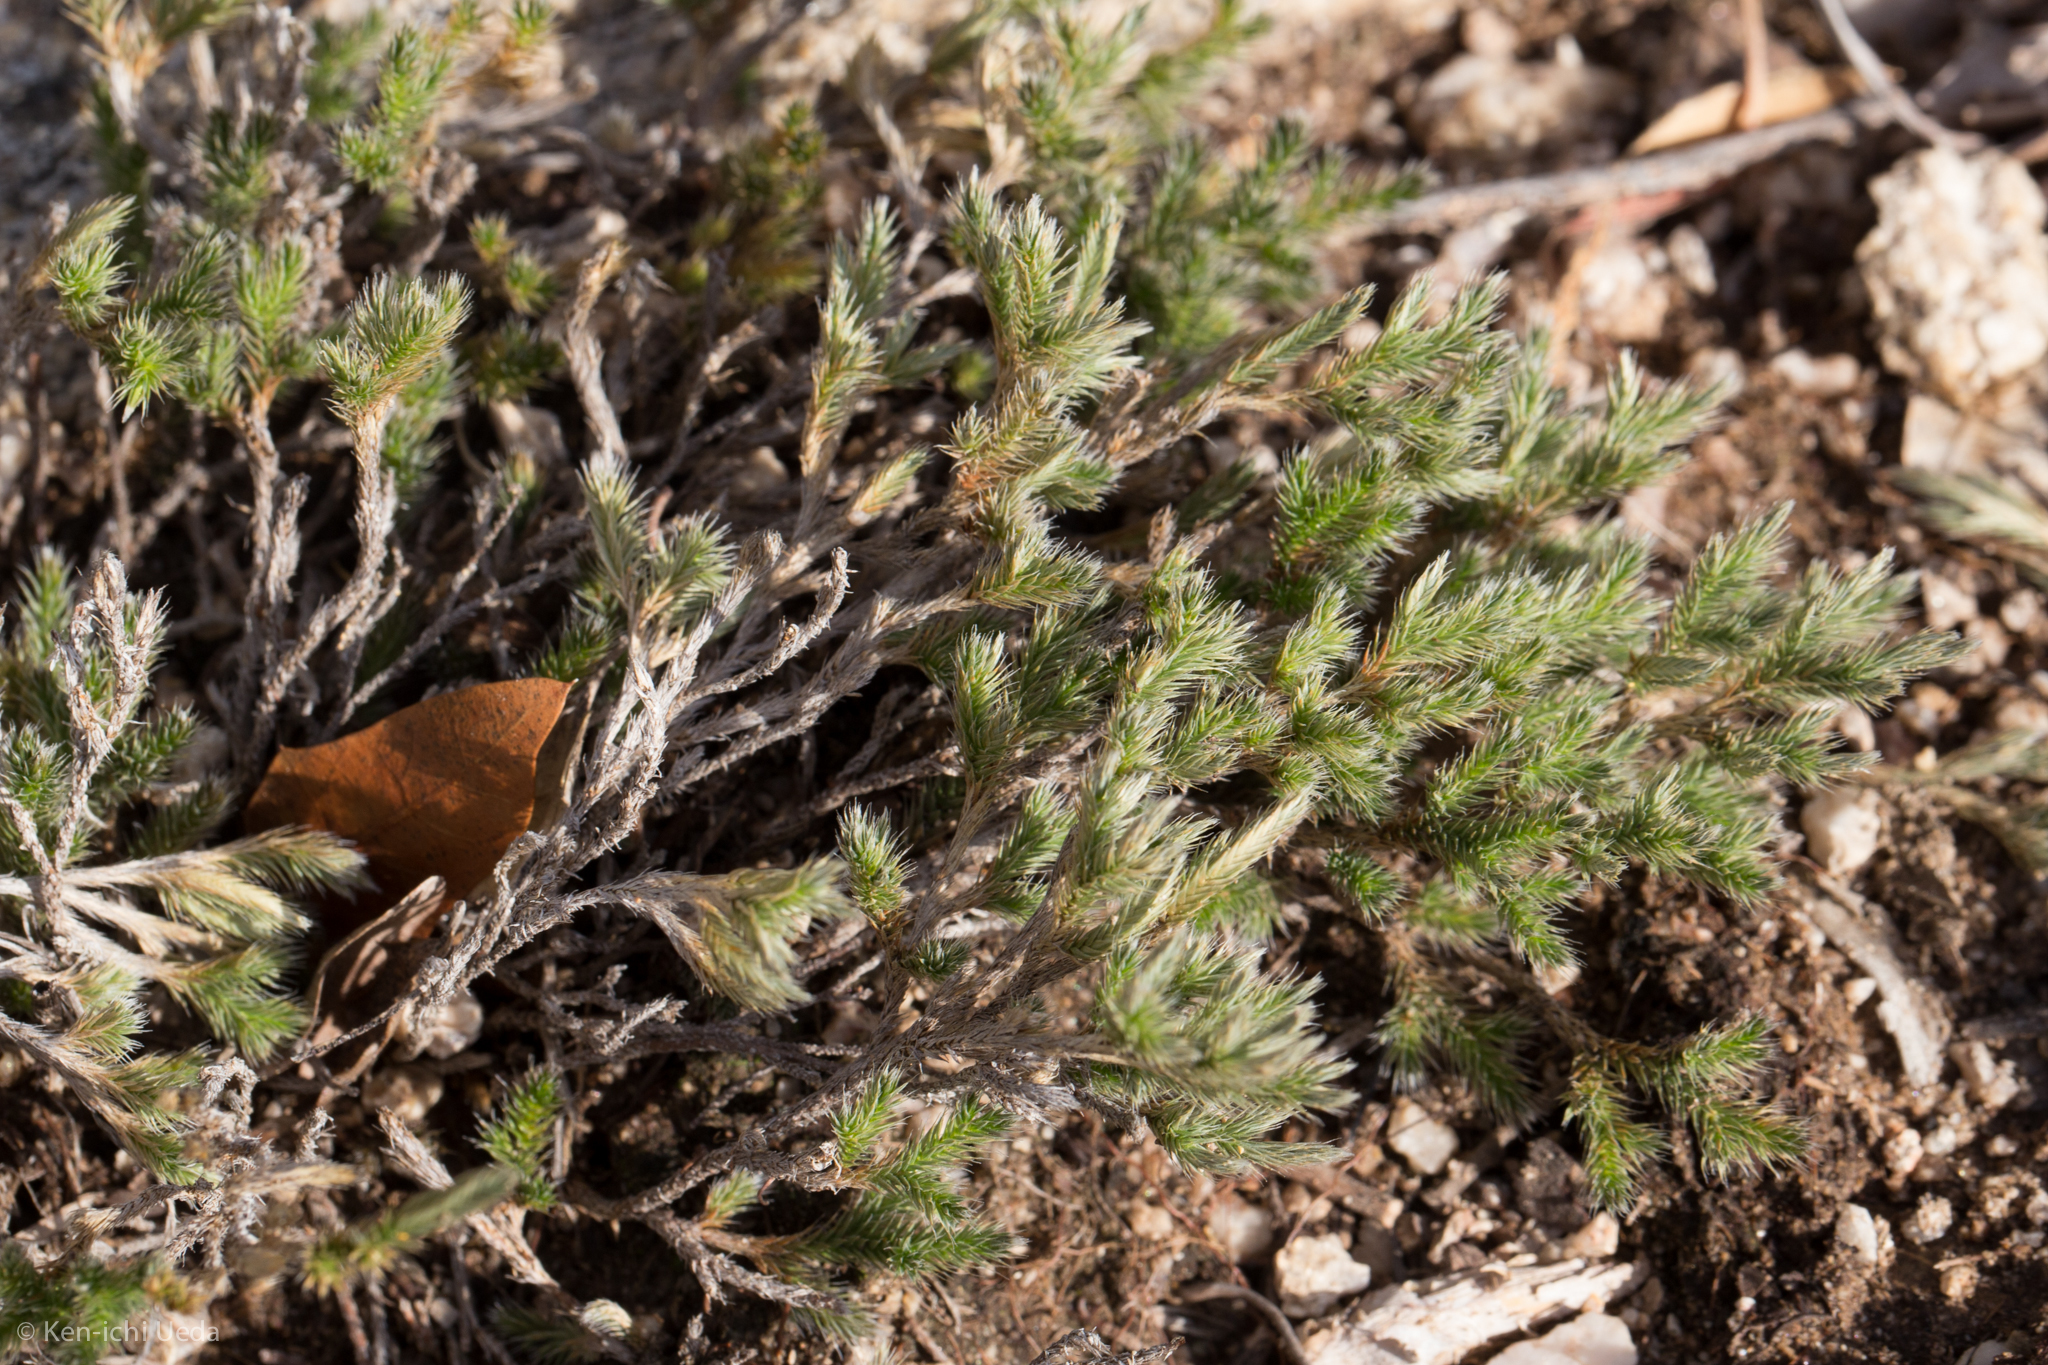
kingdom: Plantae
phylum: Tracheophyta
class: Lycopodiopsida
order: Selaginellales
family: Selaginellaceae
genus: Selaginella
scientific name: Selaginella rupincola
